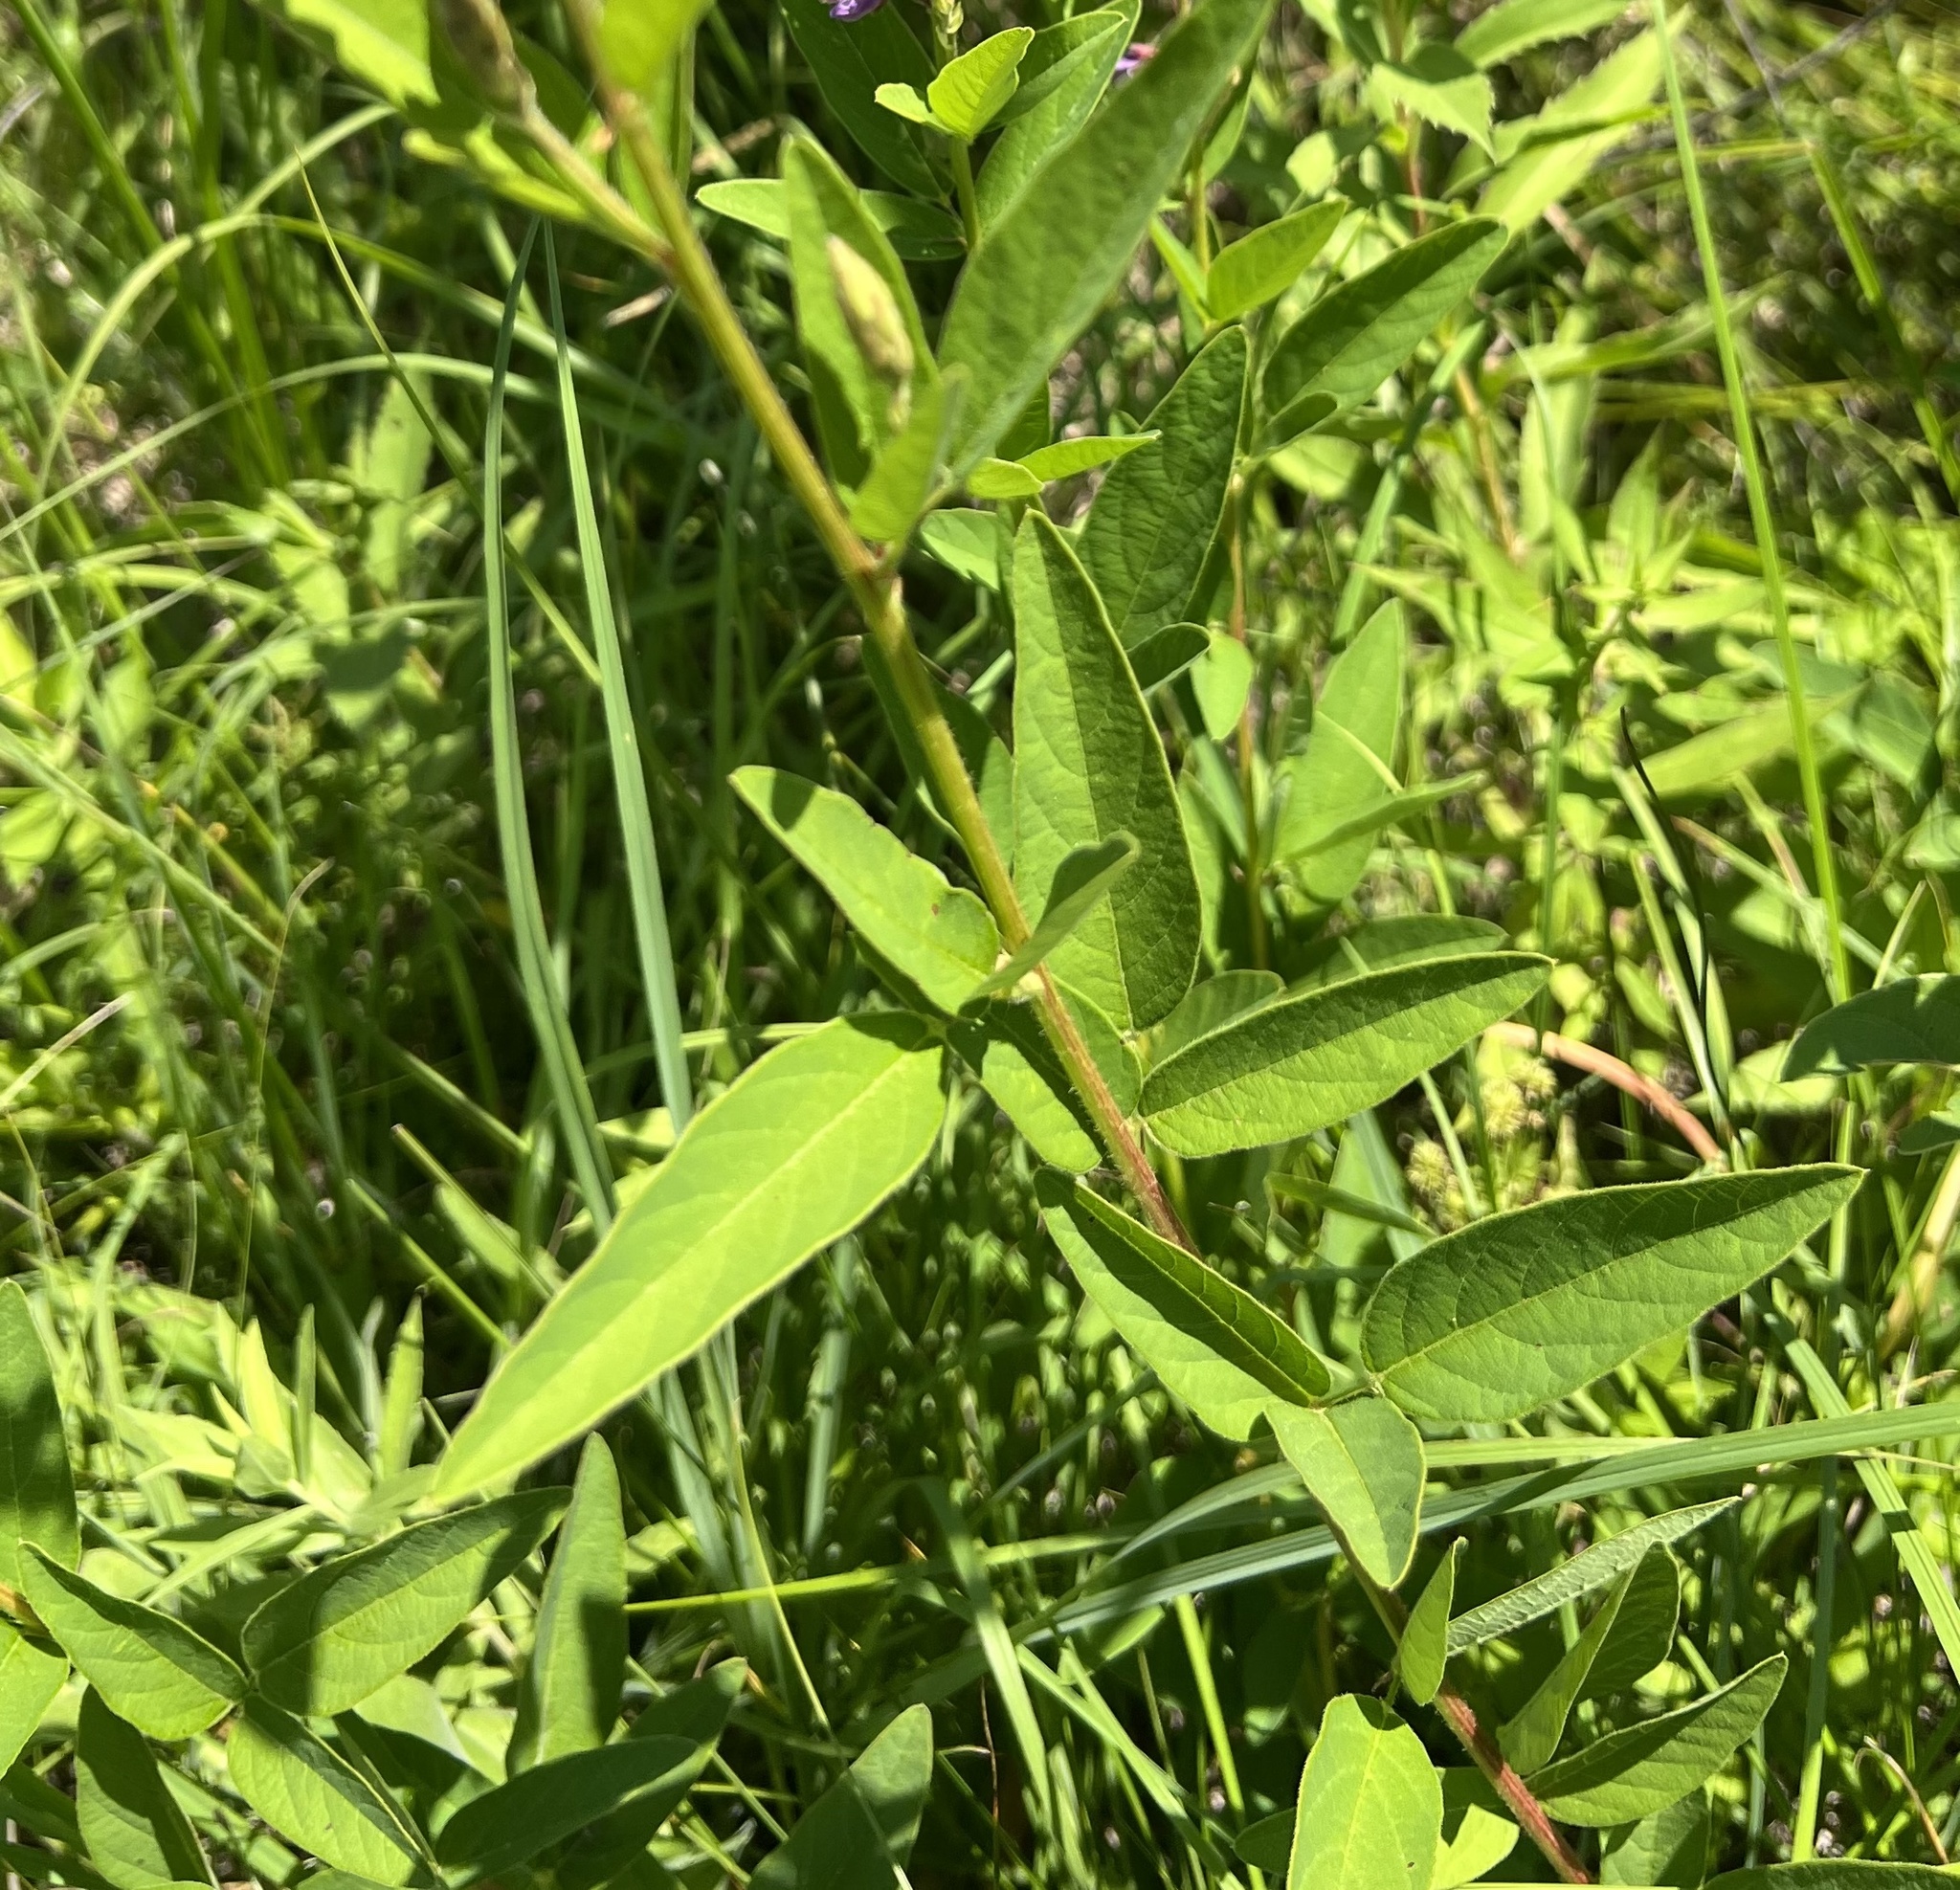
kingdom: Plantae
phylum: Tracheophyta
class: Magnoliopsida
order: Fabales
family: Fabaceae
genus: Desmodium
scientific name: Desmodium canadense
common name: Canada tick-trefoil
